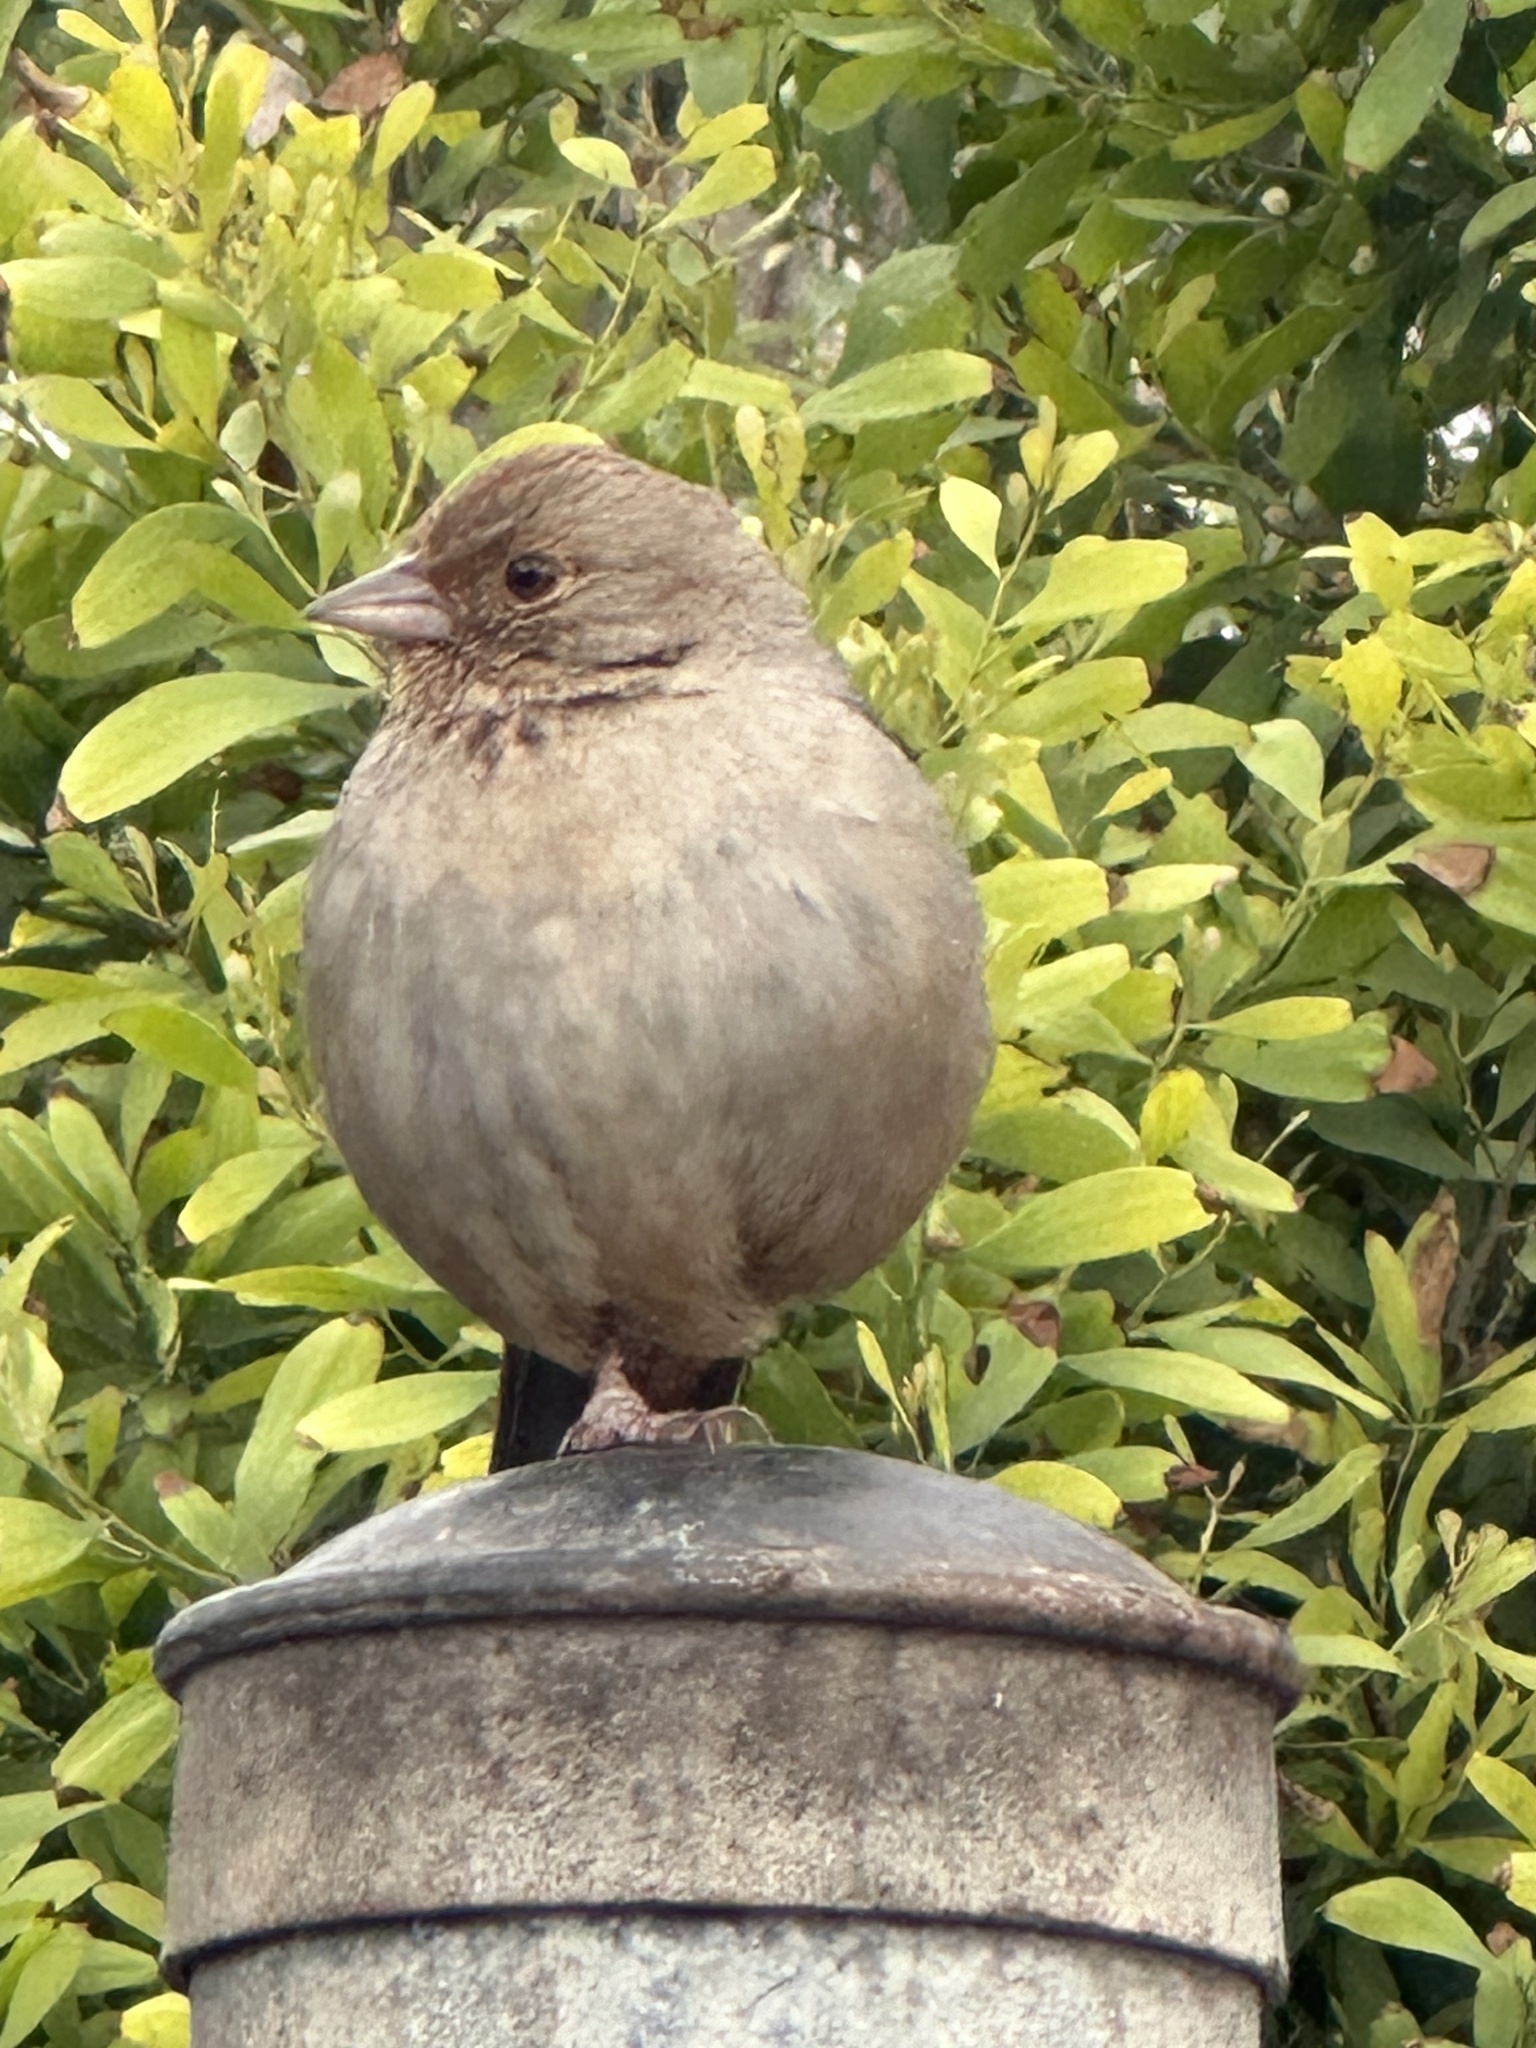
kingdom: Animalia
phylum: Chordata
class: Aves
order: Passeriformes
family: Passerellidae
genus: Melozone
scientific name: Melozone crissalis
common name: California towhee
